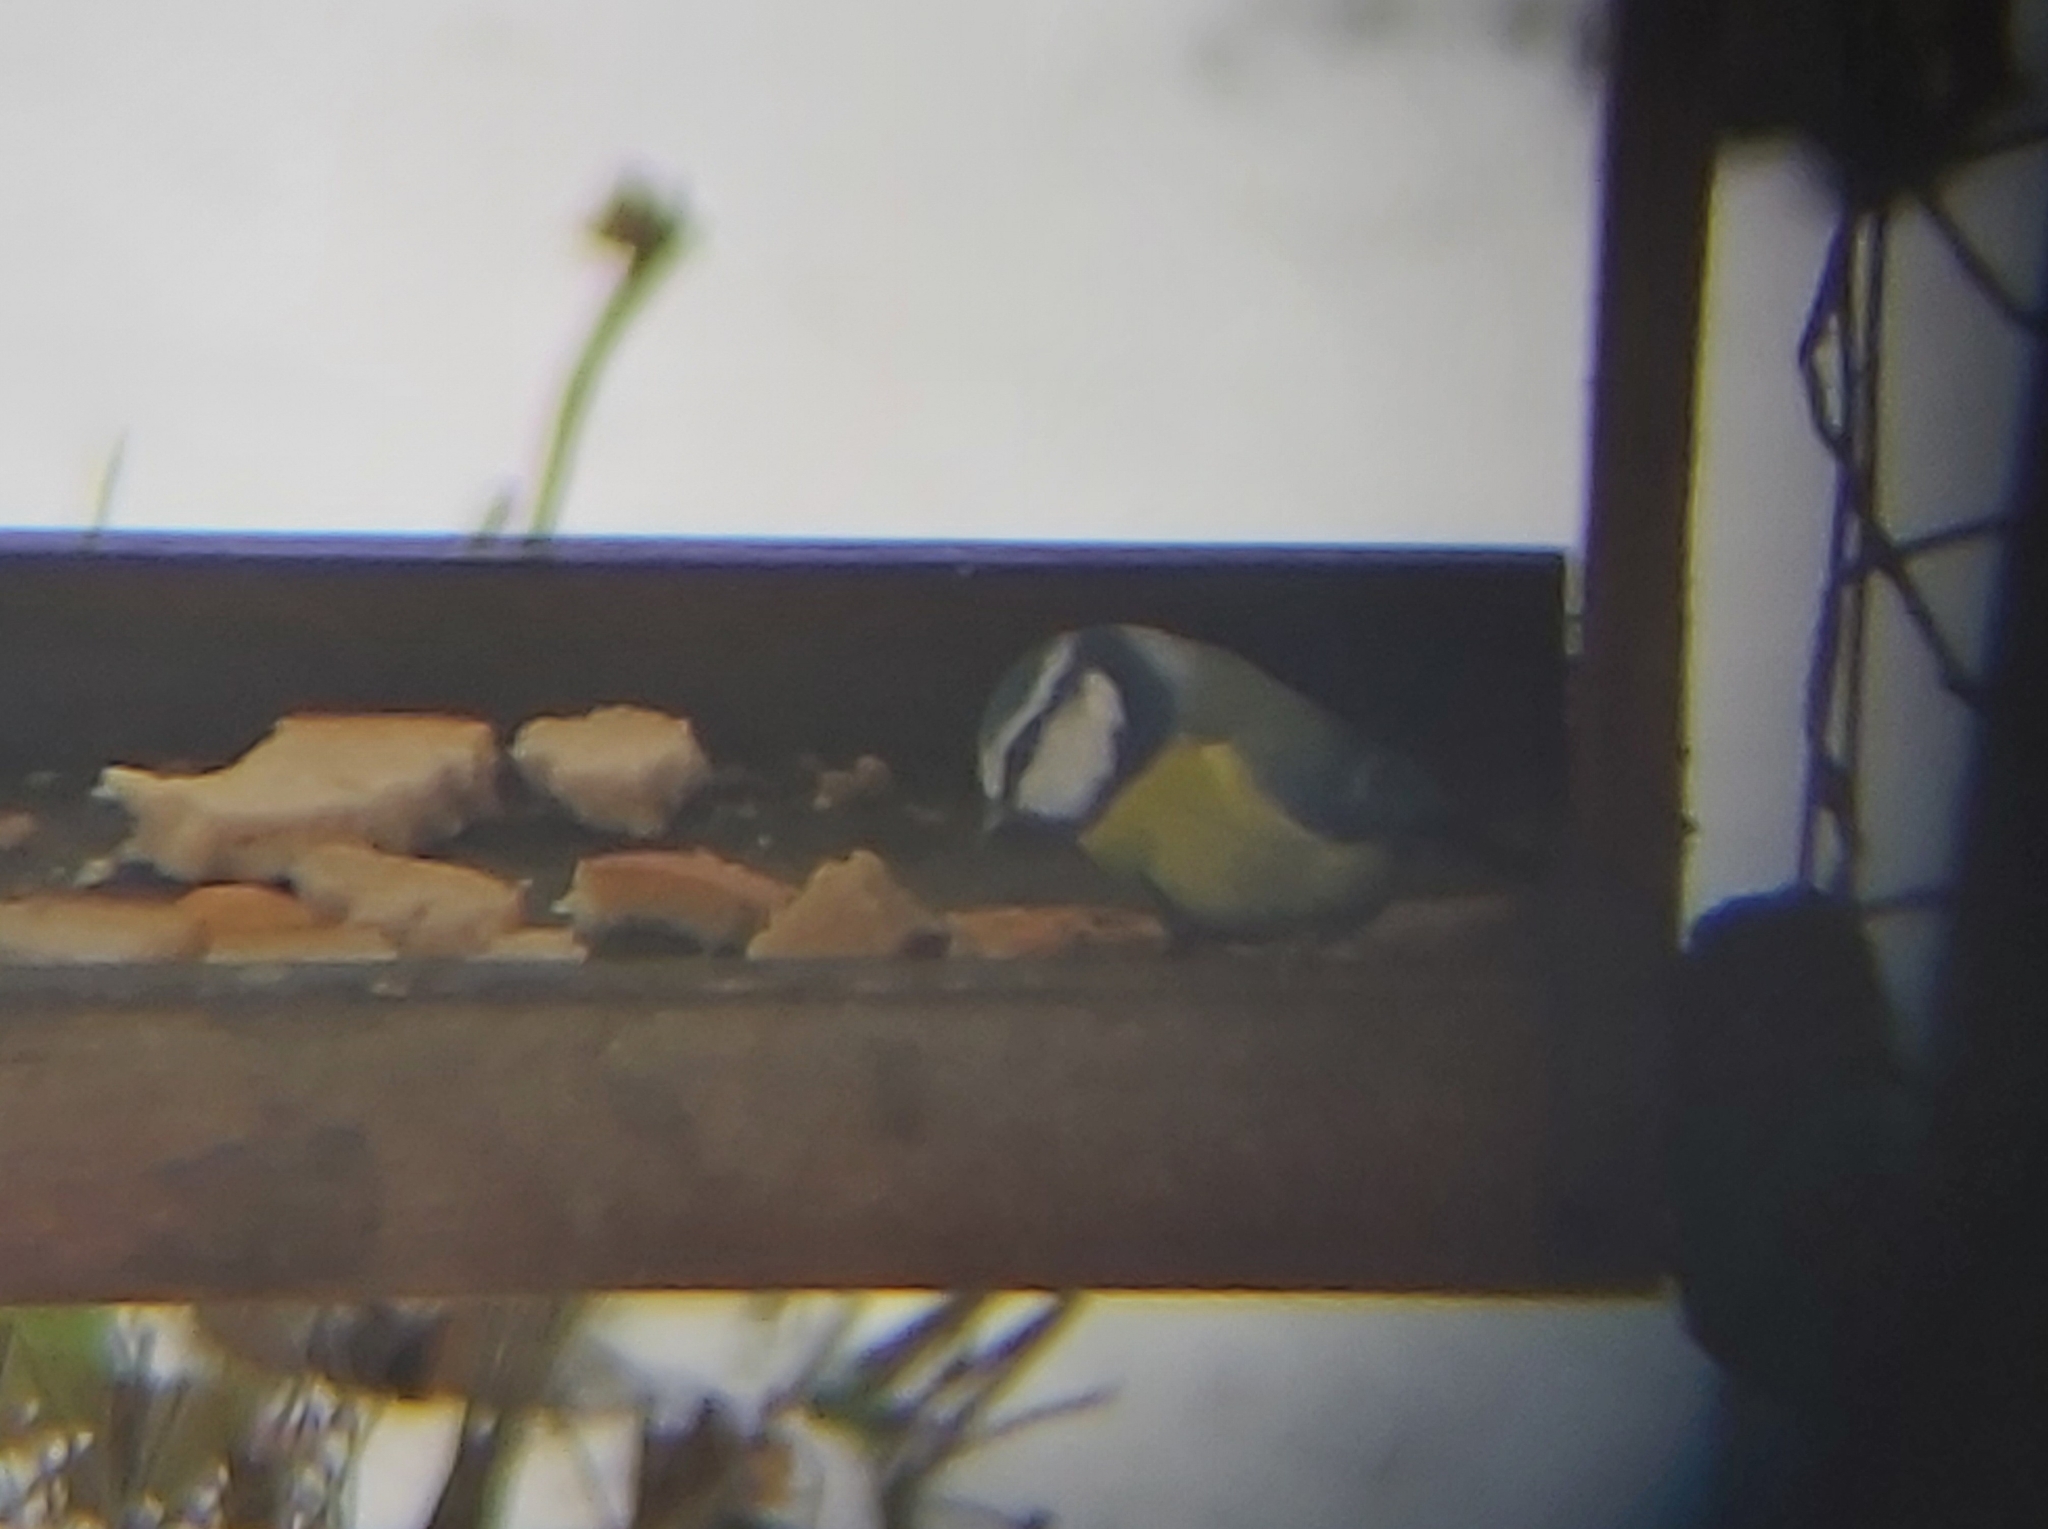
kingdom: Animalia
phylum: Chordata
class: Aves
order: Passeriformes
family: Paridae
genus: Cyanistes
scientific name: Cyanistes caeruleus
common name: Eurasian blue tit
